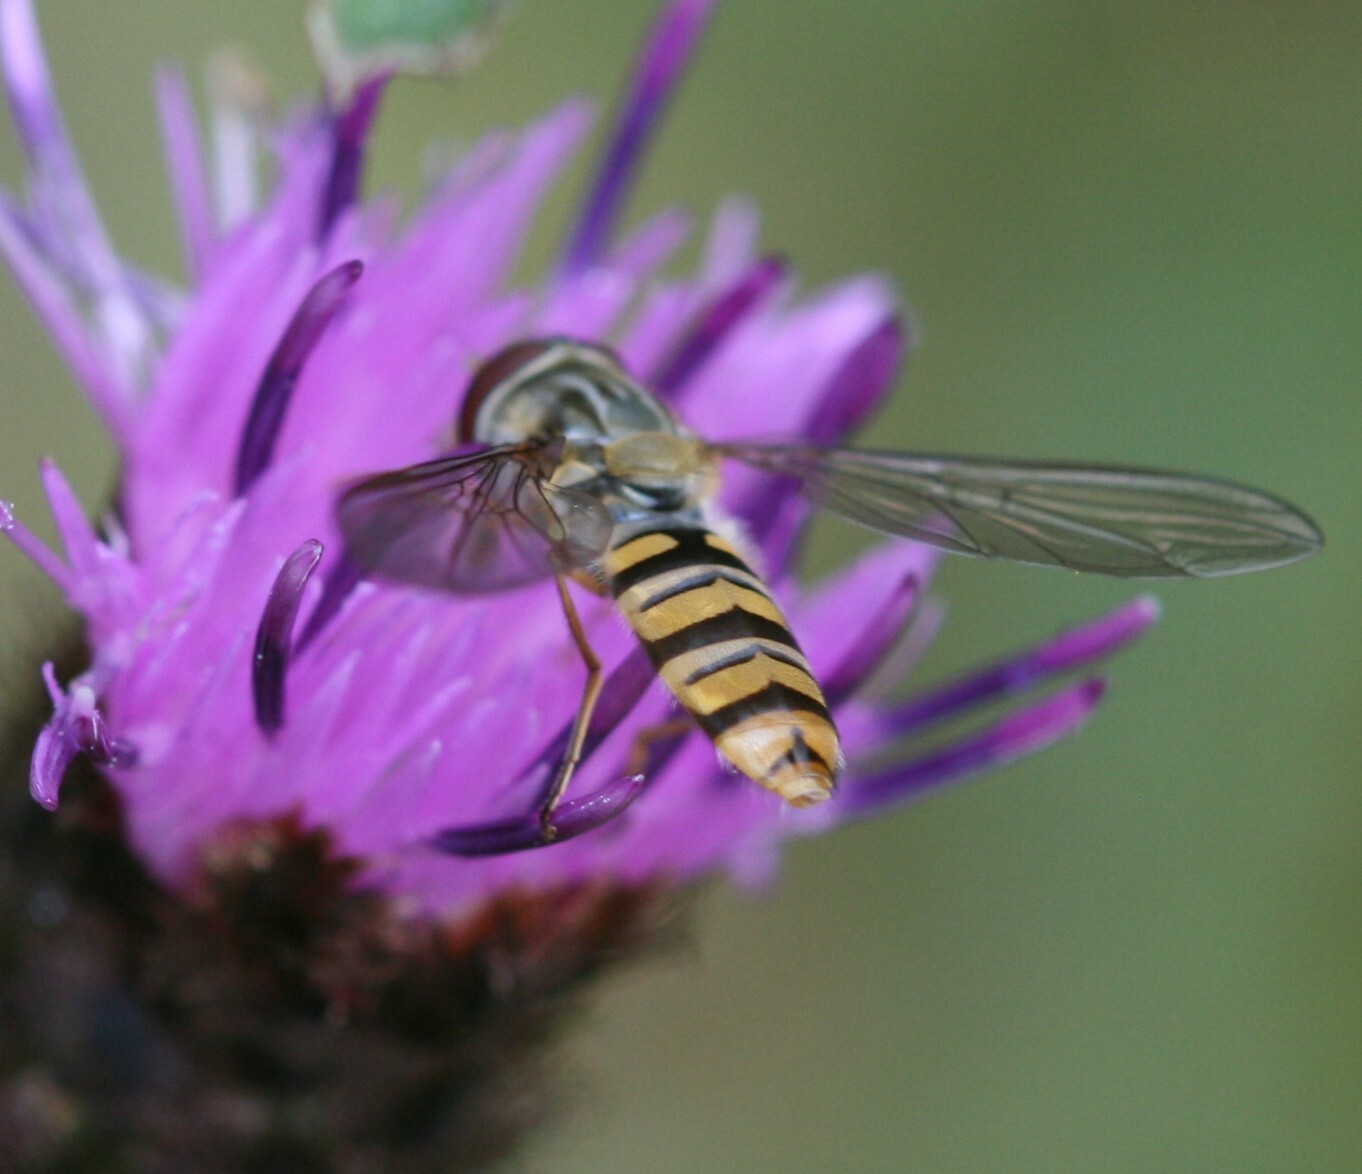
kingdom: Animalia
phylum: Arthropoda
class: Insecta
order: Diptera
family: Syrphidae
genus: Episyrphus
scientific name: Episyrphus balteatus
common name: Marmalade hoverfly
